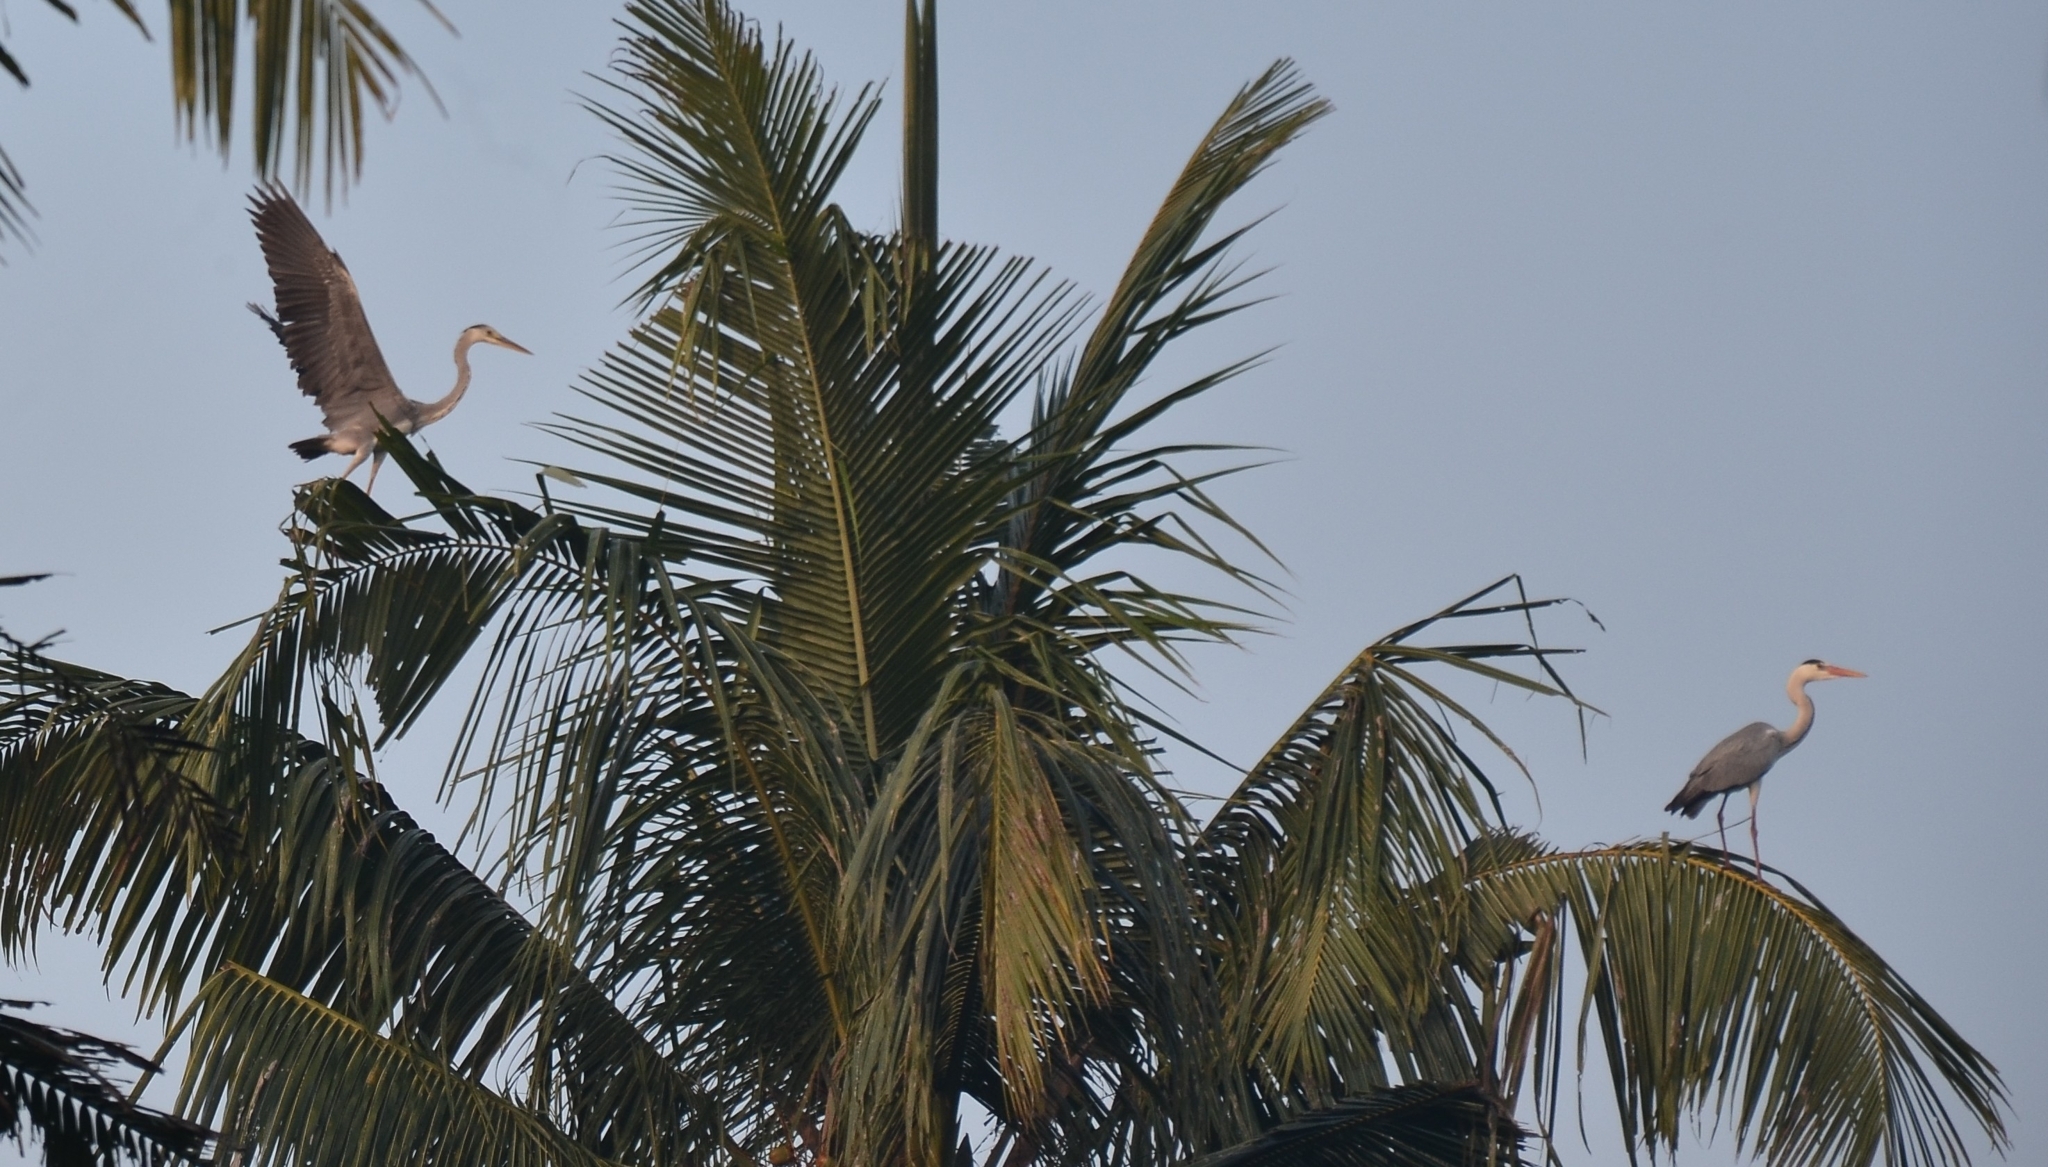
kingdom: Animalia
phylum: Chordata
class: Aves
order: Pelecaniformes
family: Ardeidae
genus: Ardea
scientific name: Ardea cinerea
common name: Grey heron
